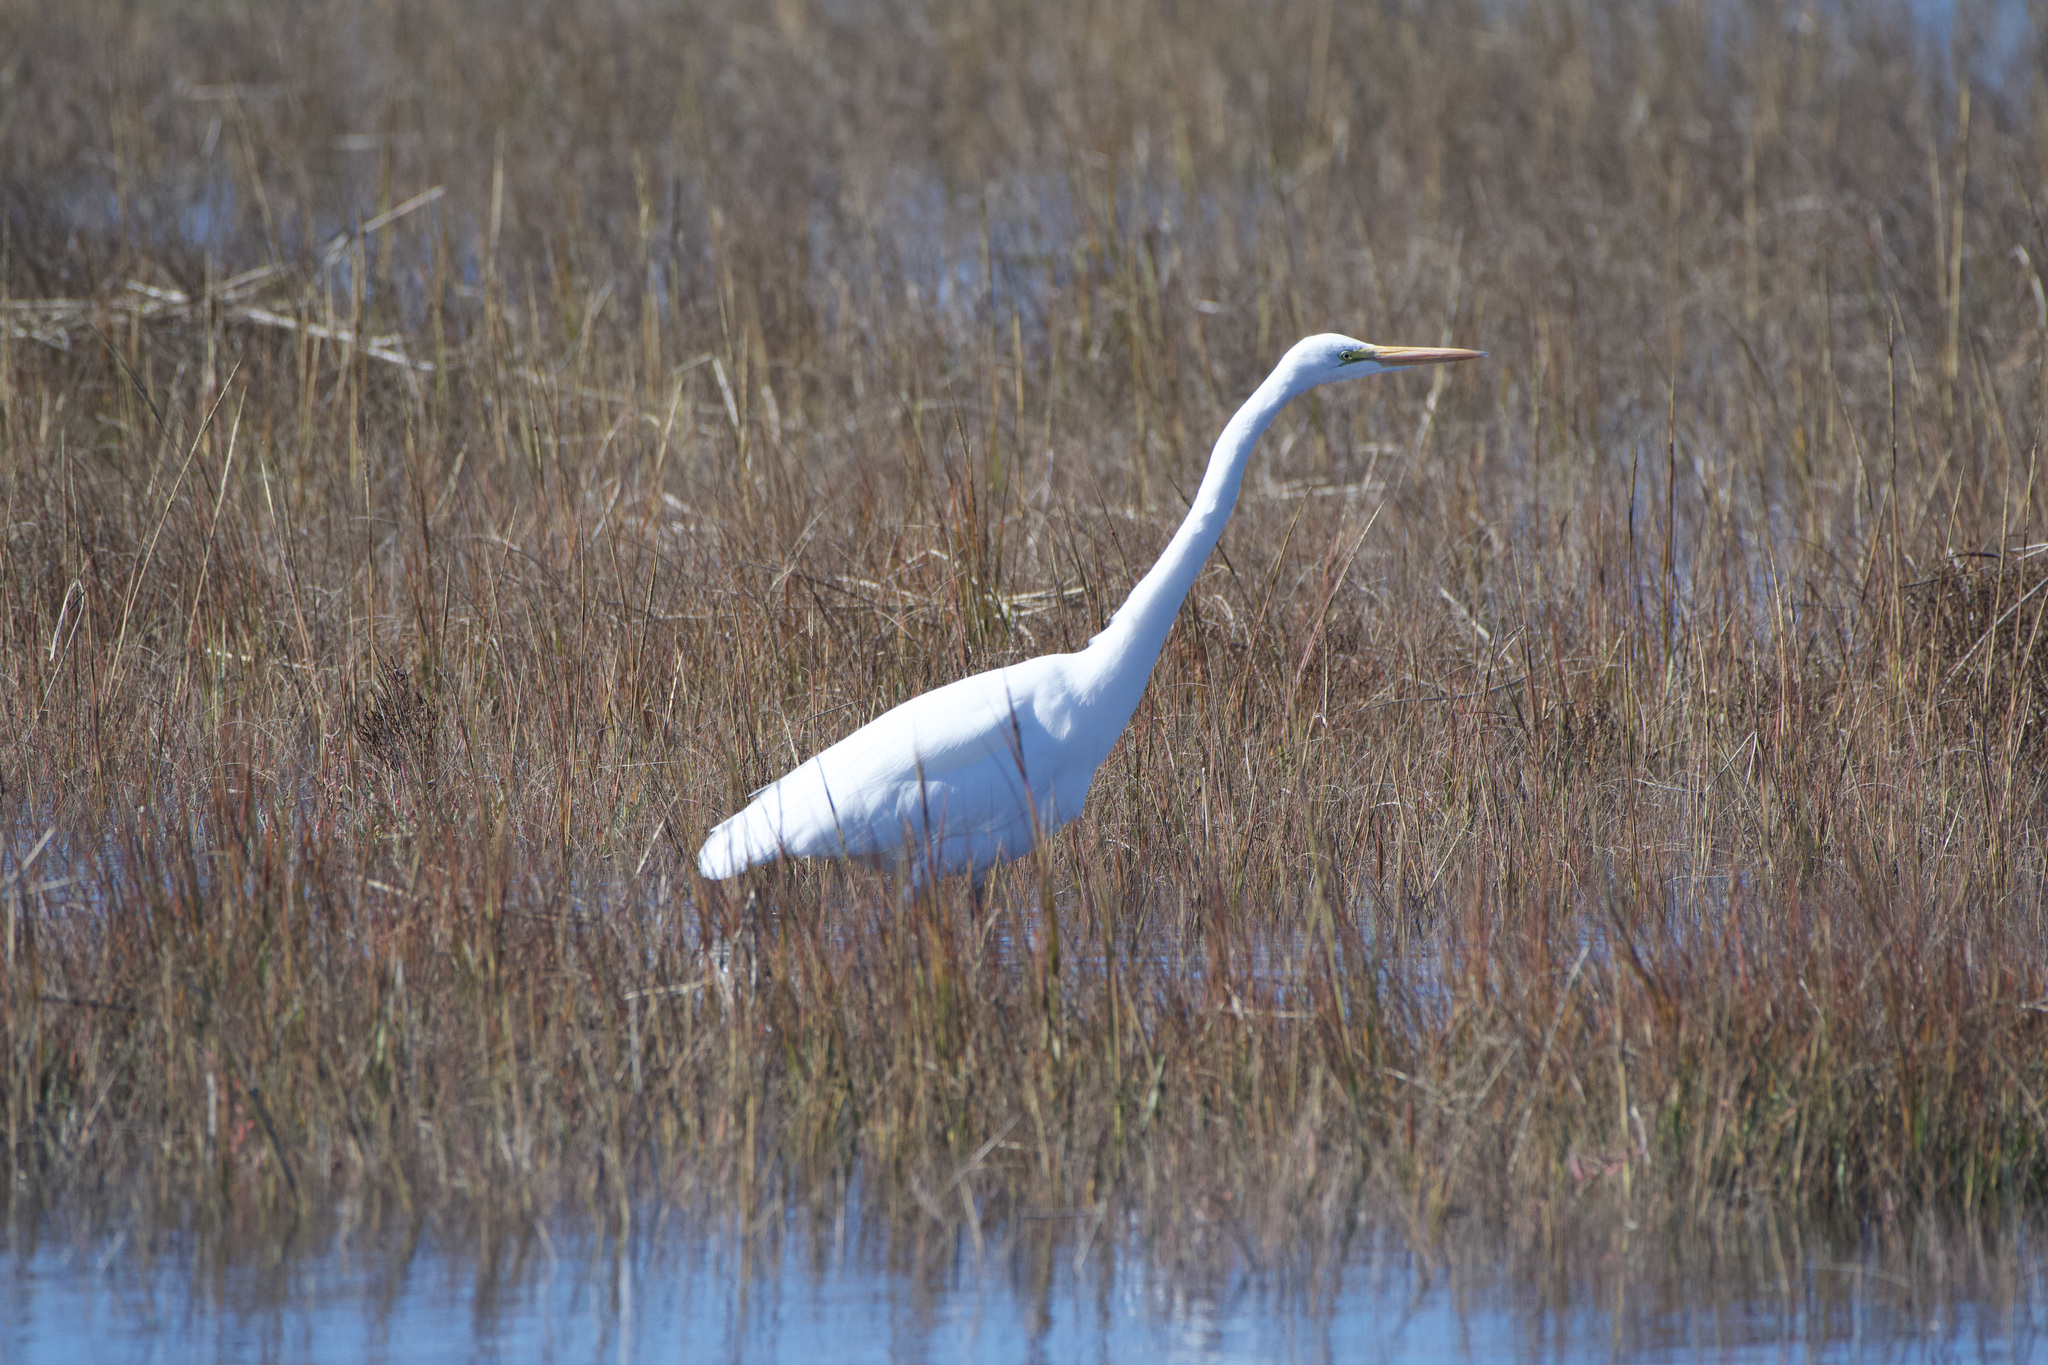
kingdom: Animalia
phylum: Chordata
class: Aves
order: Pelecaniformes
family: Ardeidae
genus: Ardea
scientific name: Ardea alba
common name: Great egret
